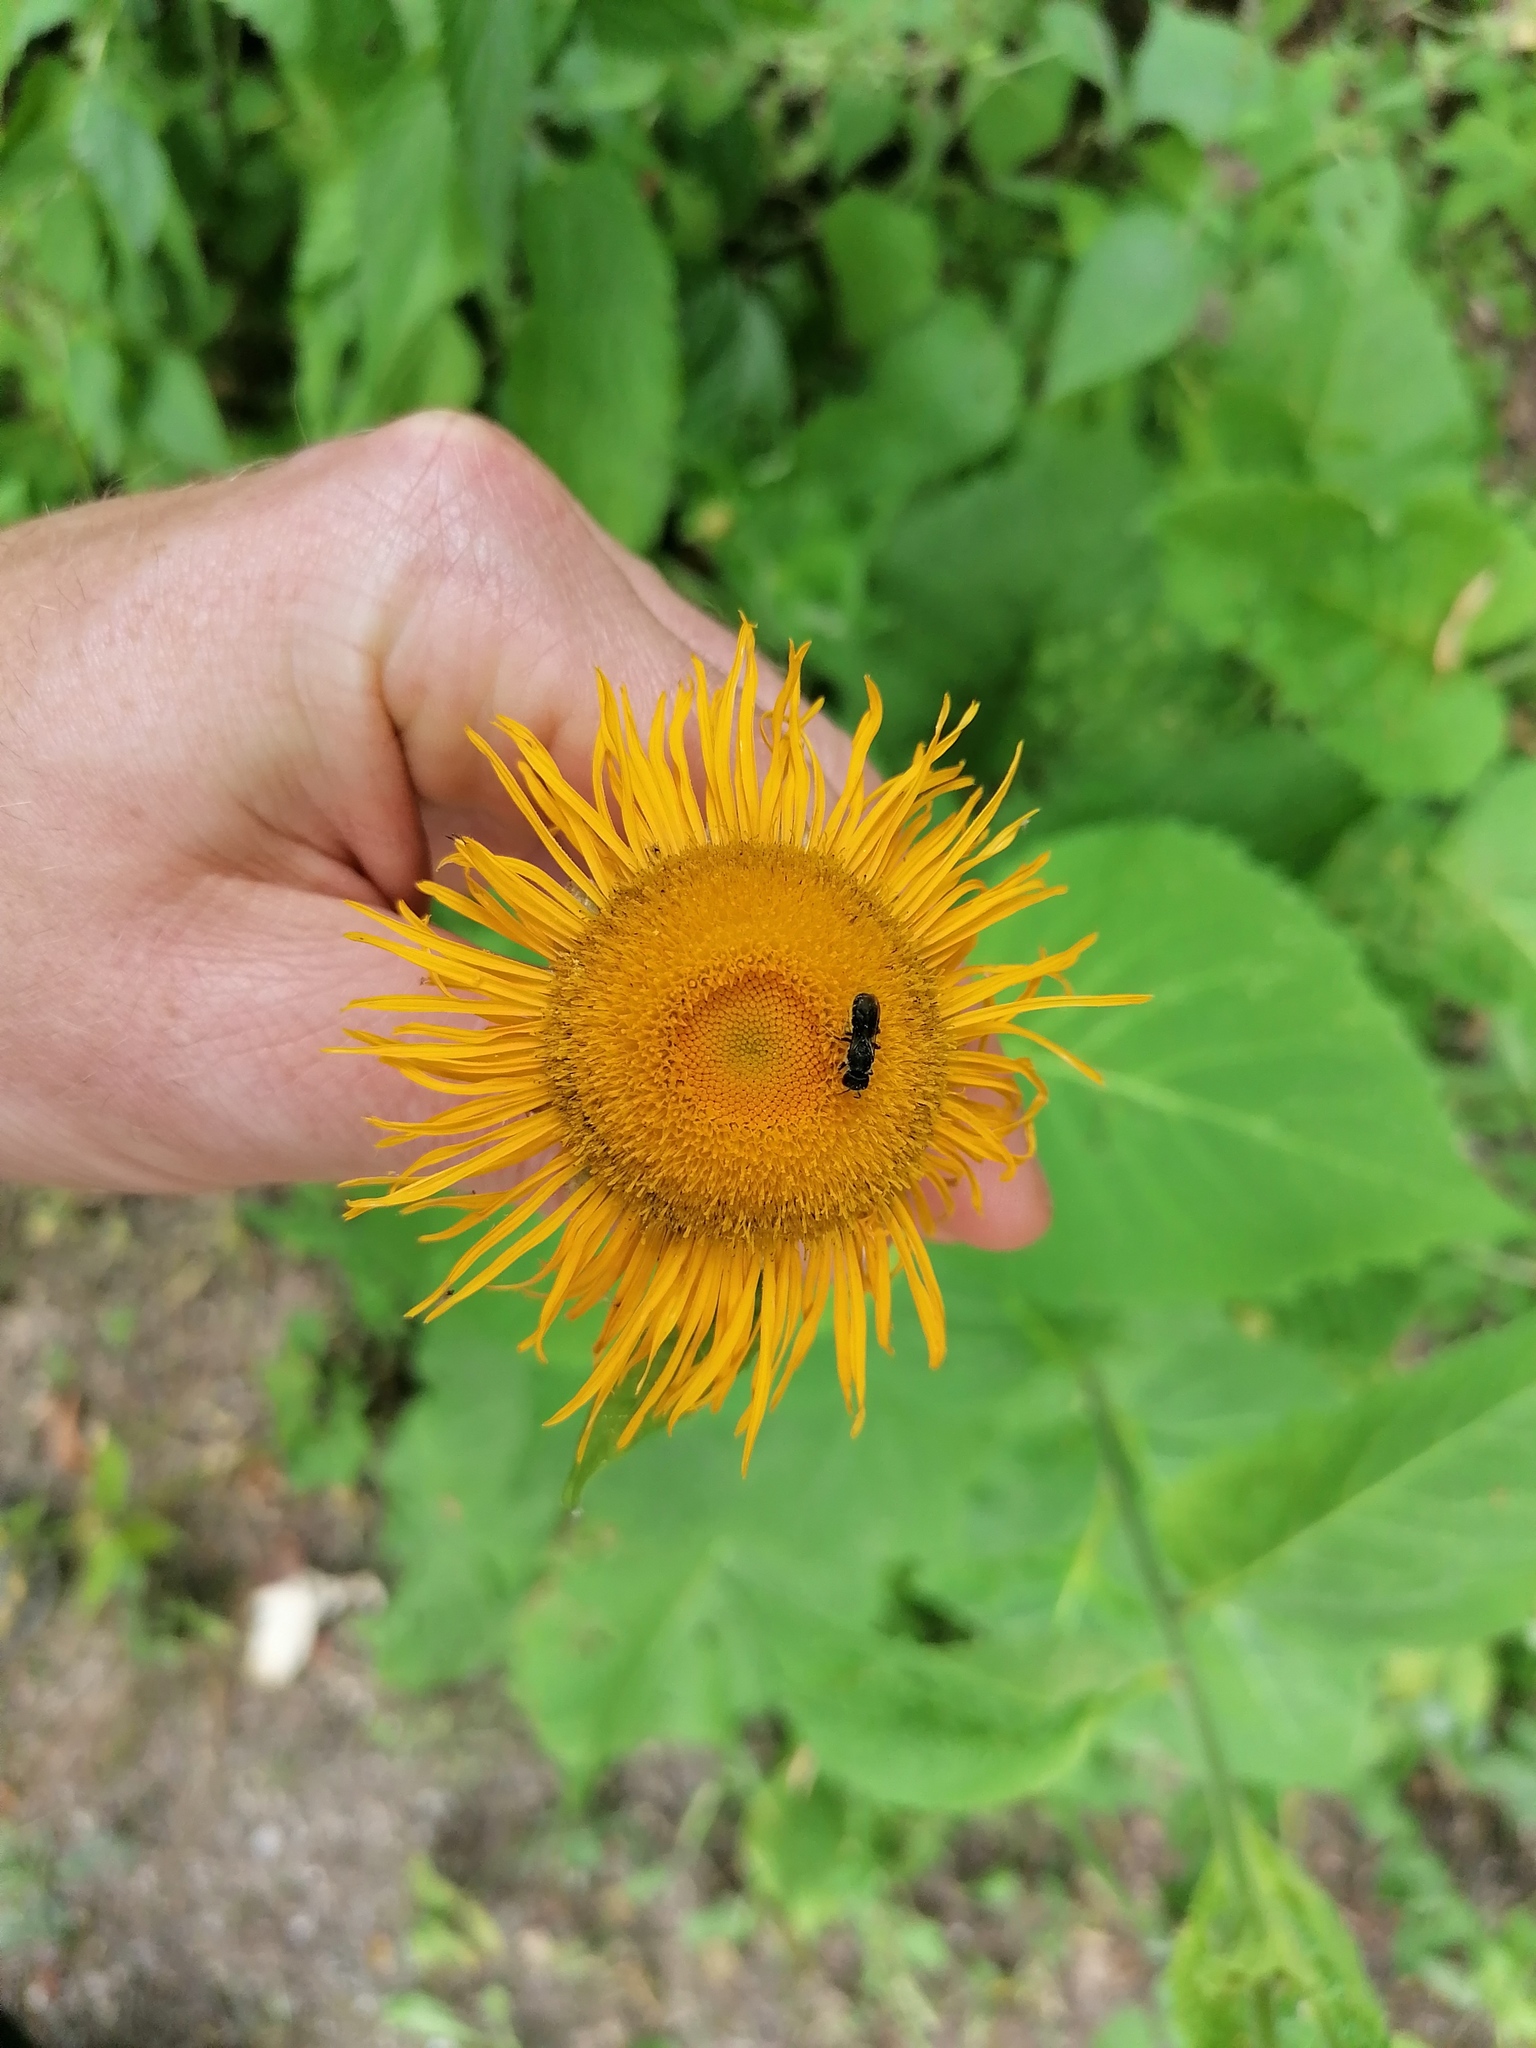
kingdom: Plantae
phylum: Tracheophyta
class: Magnoliopsida
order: Asterales
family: Asteraceae
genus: Telekia
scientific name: Telekia speciosa
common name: Yellow oxeye
